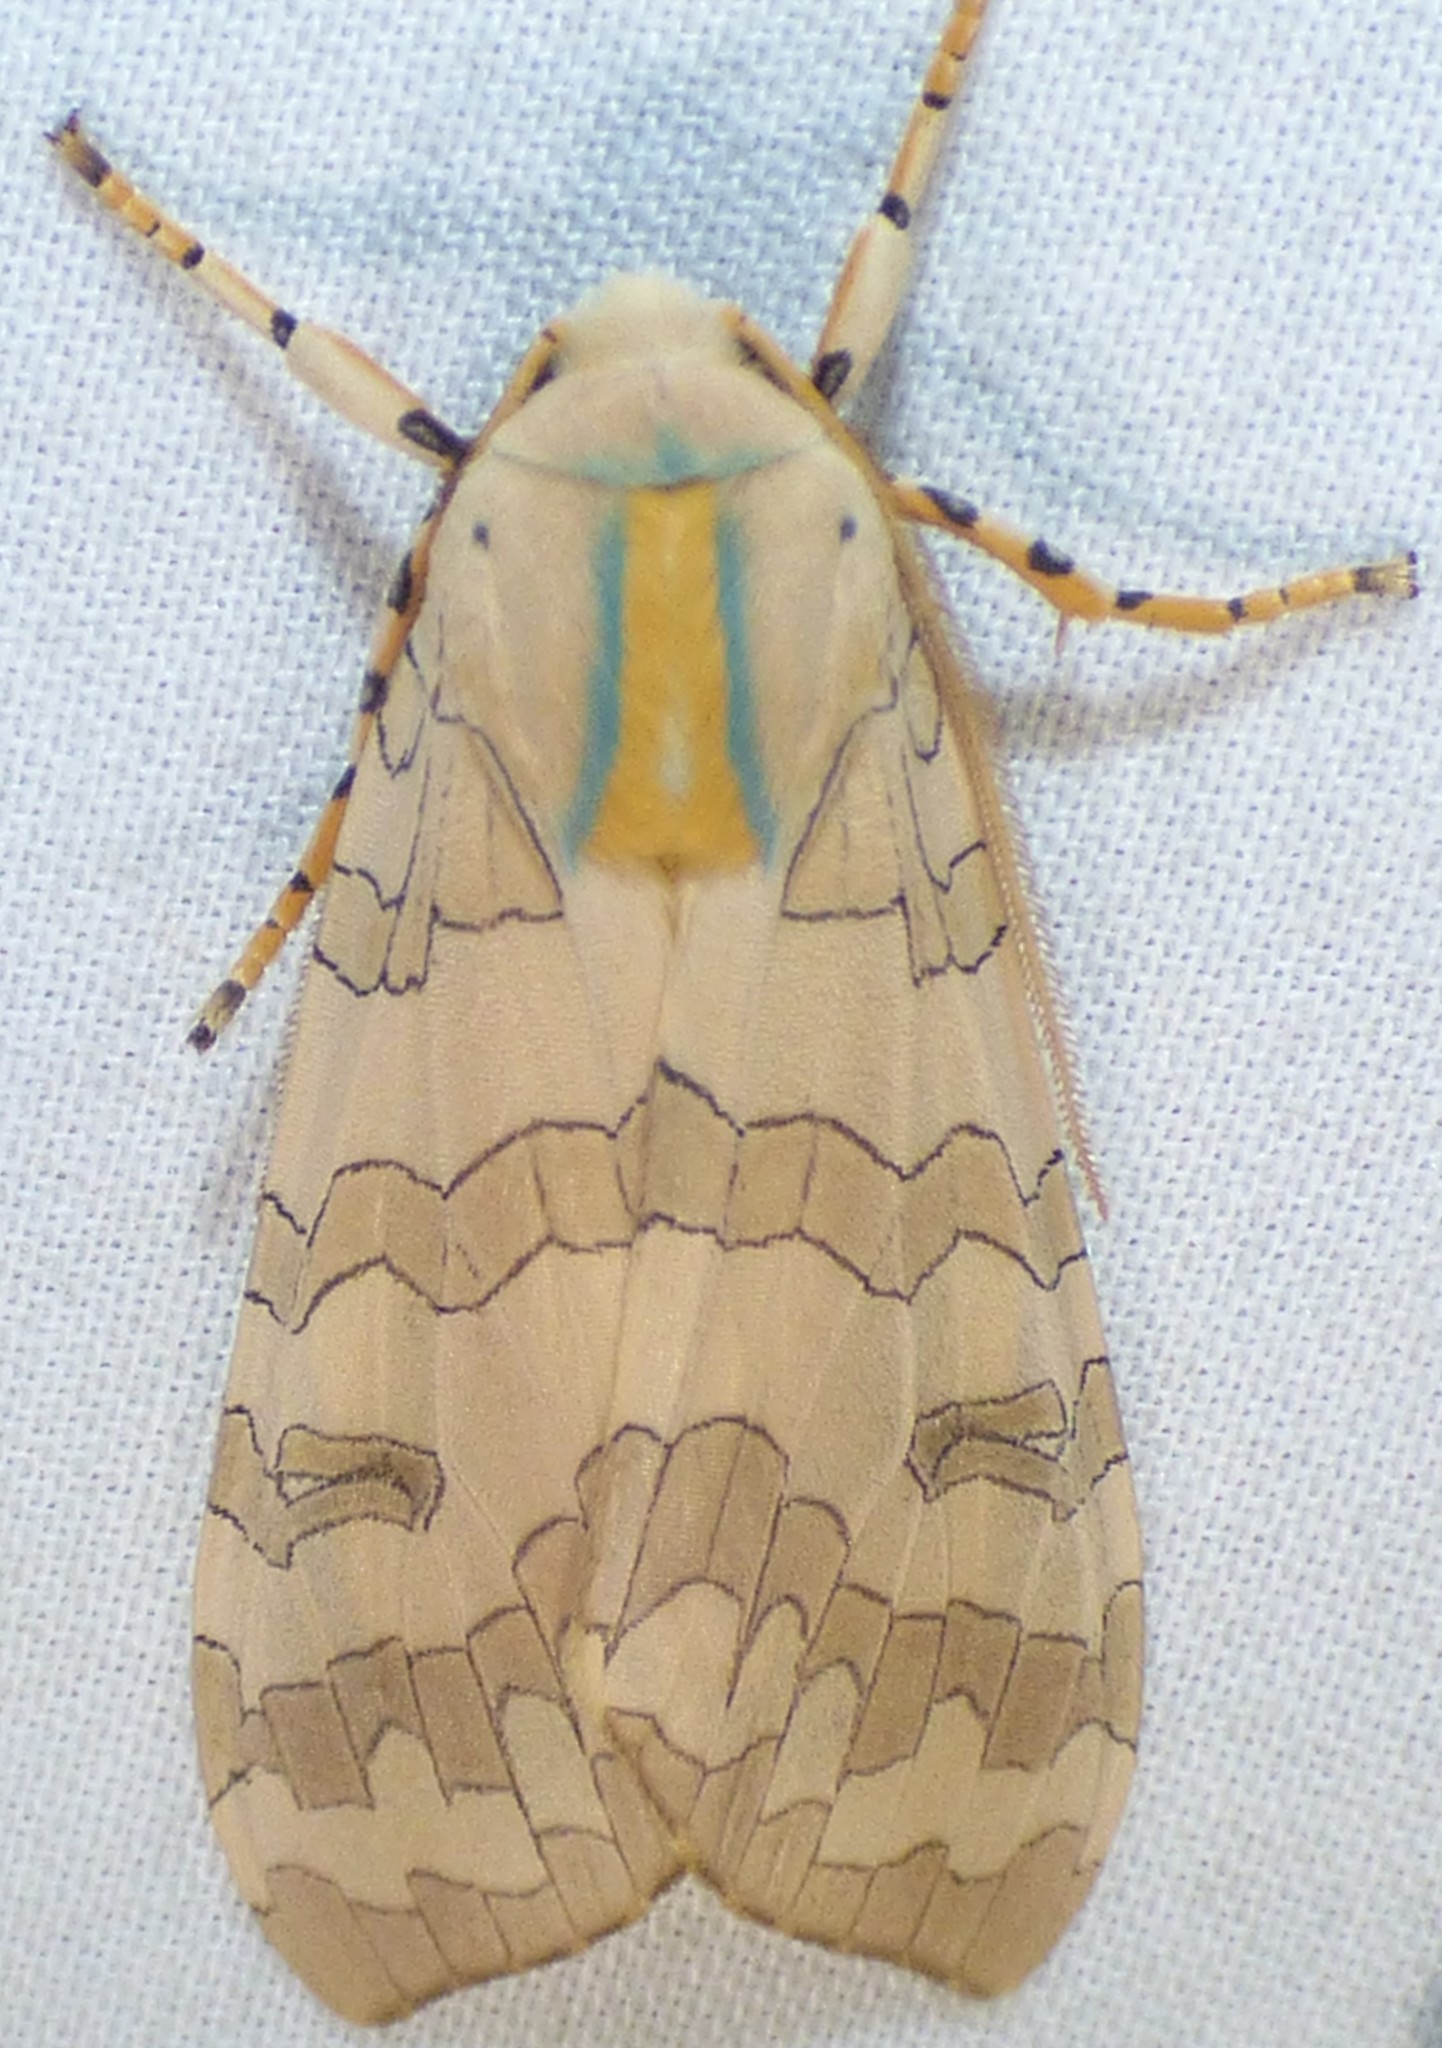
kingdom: Animalia
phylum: Arthropoda
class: Insecta
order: Lepidoptera
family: Erebidae
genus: Halysidota
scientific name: Halysidota
